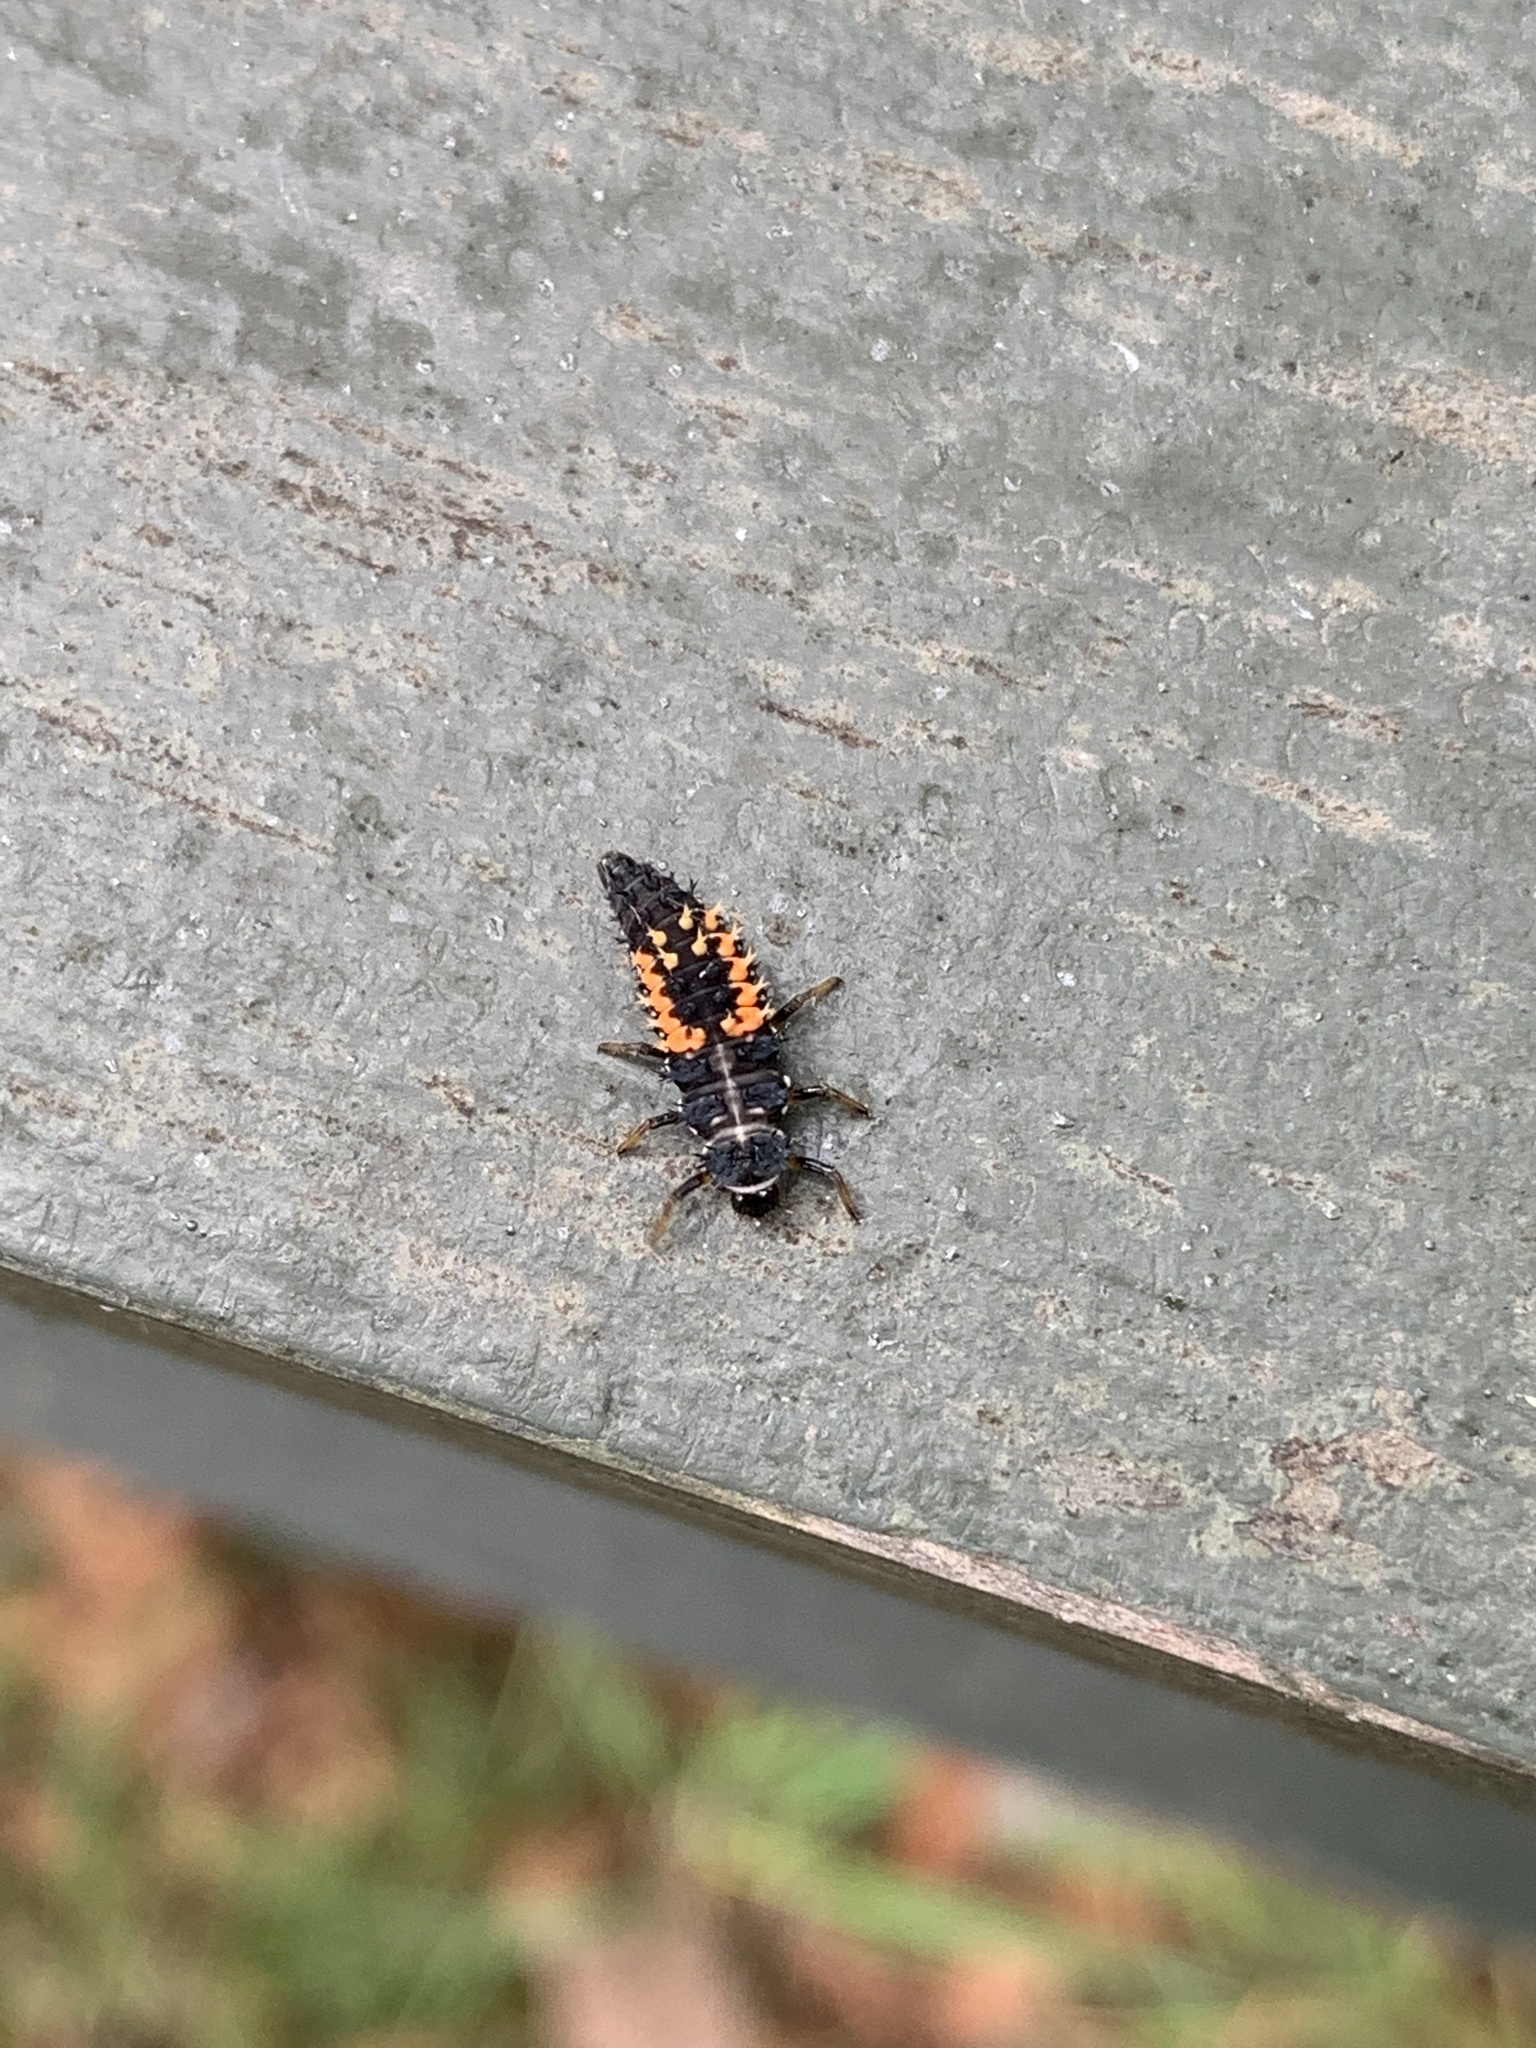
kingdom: Animalia
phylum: Arthropoda
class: Insecta
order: Coleoptera
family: Coccinellidae
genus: Harmonia
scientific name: Harmonia axyridis
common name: Harlequin ladybird
